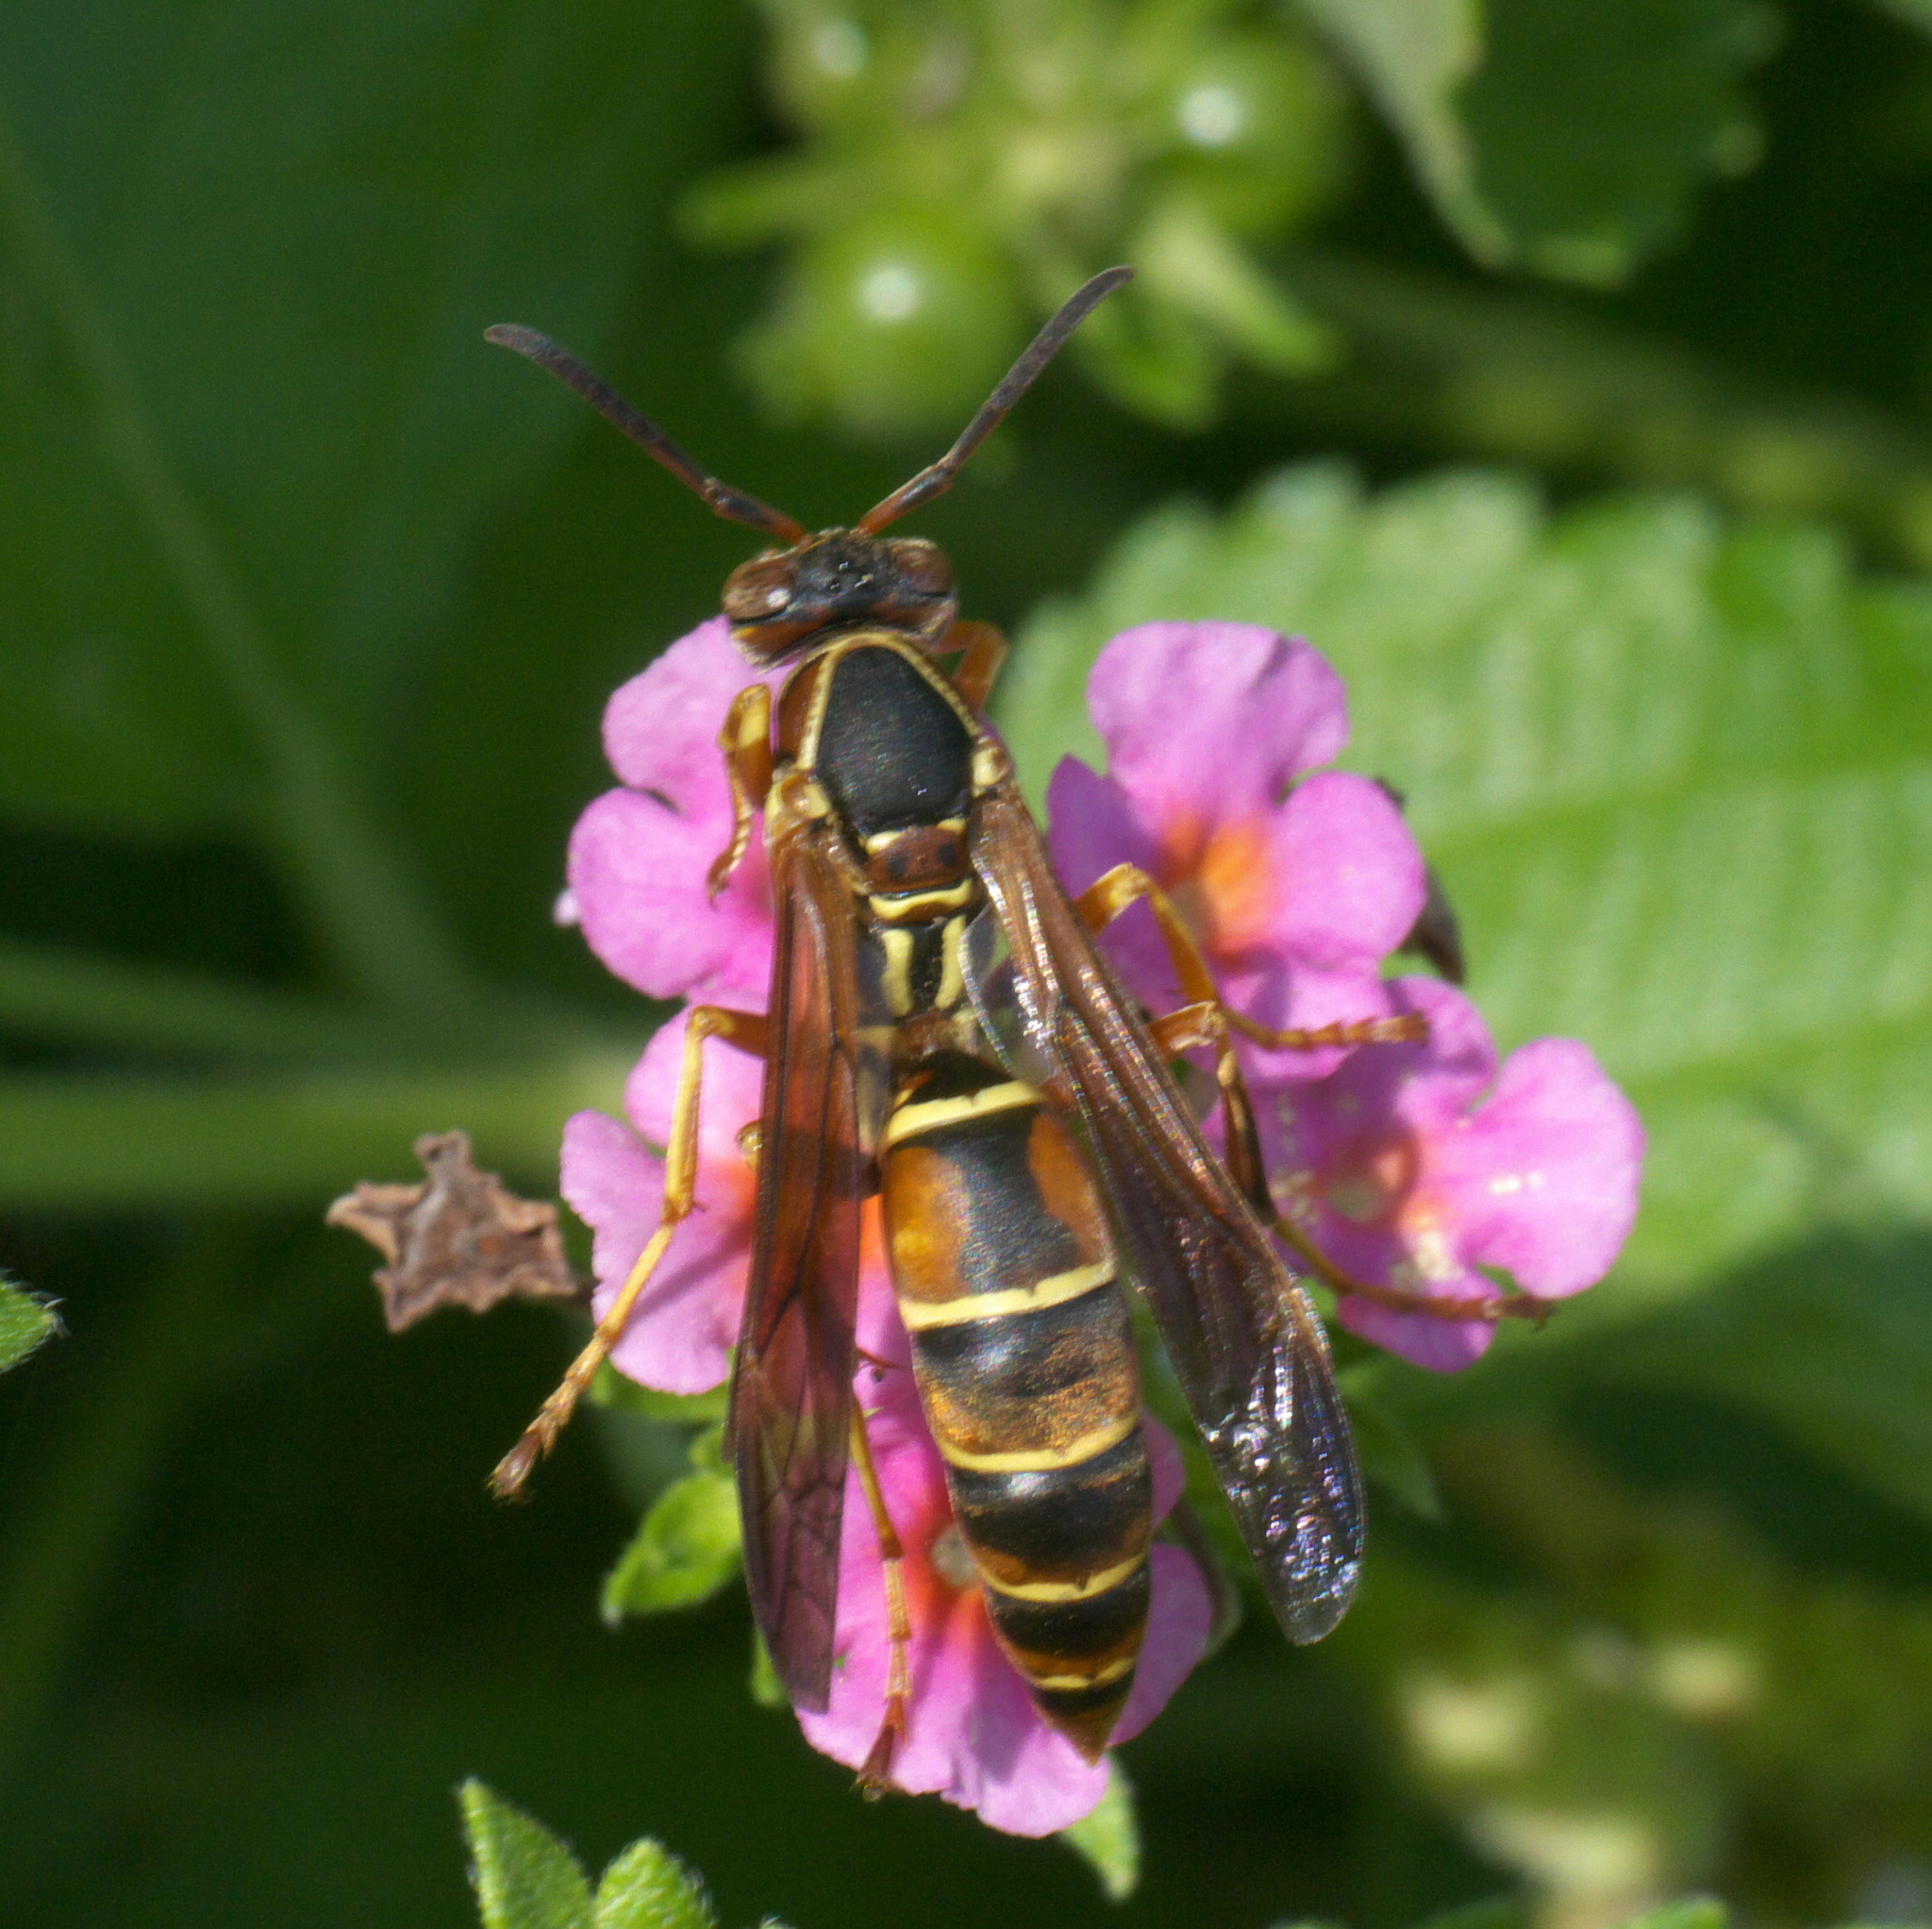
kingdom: Animalia
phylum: Arthropoda
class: Insecta
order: Hymenoptera
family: Eumenidae
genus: Polistes
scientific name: Polistes fuscatus
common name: Dark paper wasp
